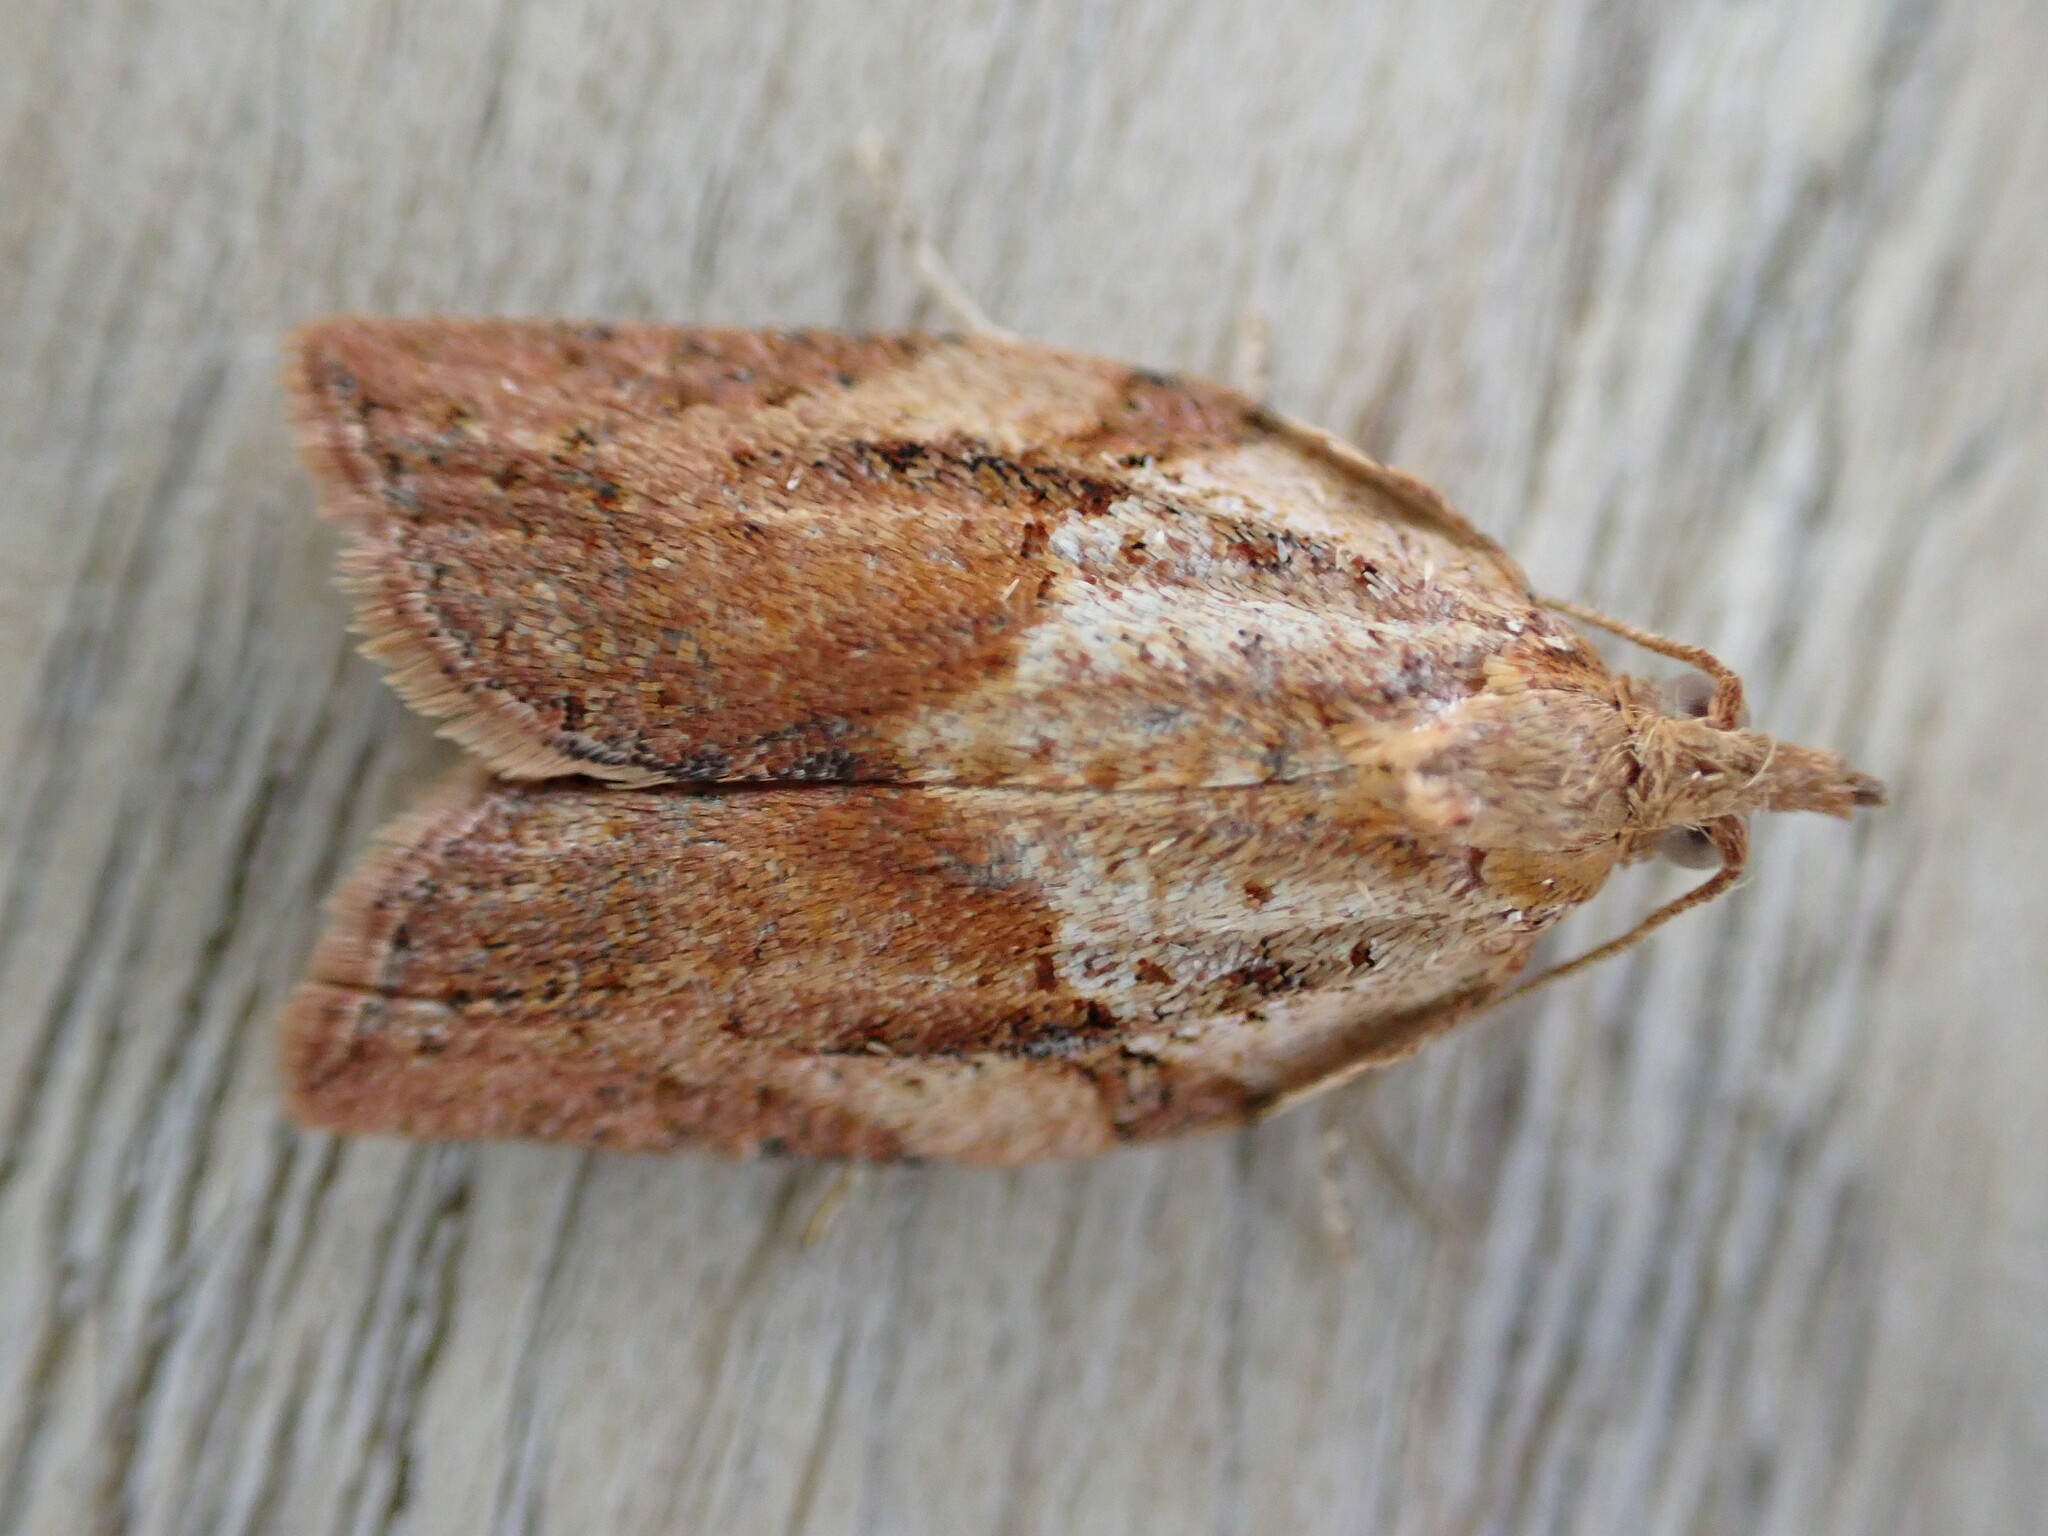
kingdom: Animalia
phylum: Arthropoda
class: Insecta
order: Lepidoptera
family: Tortricidae
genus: Epiphyas
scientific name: Epiphyas postvittana
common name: Light brown apple moth
